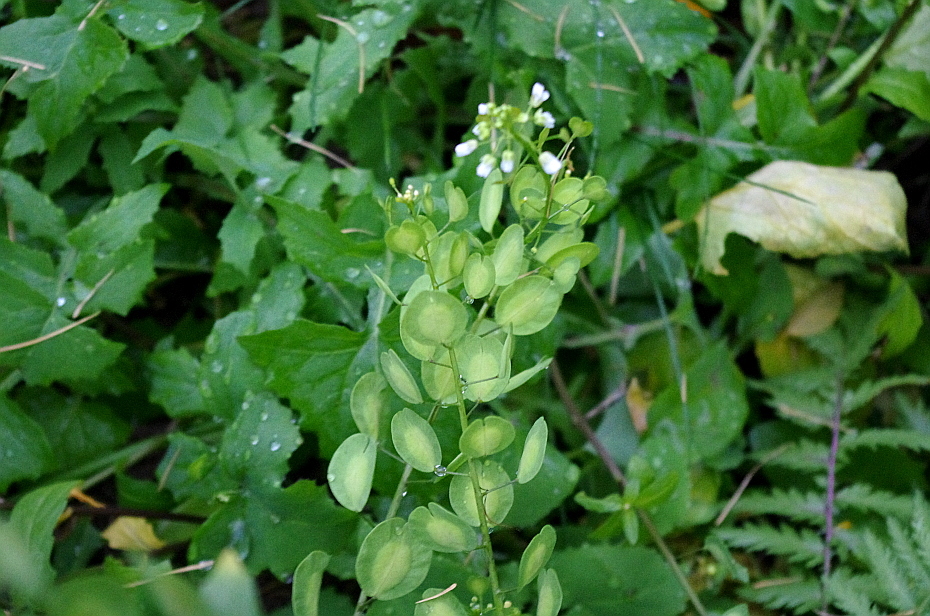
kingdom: Plantae
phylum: Tracheophyta
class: Magnoliopsida
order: Brassicales
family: Brassicaceae
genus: Thlaspi
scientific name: Thlaspi arvense
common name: Field pennycress
